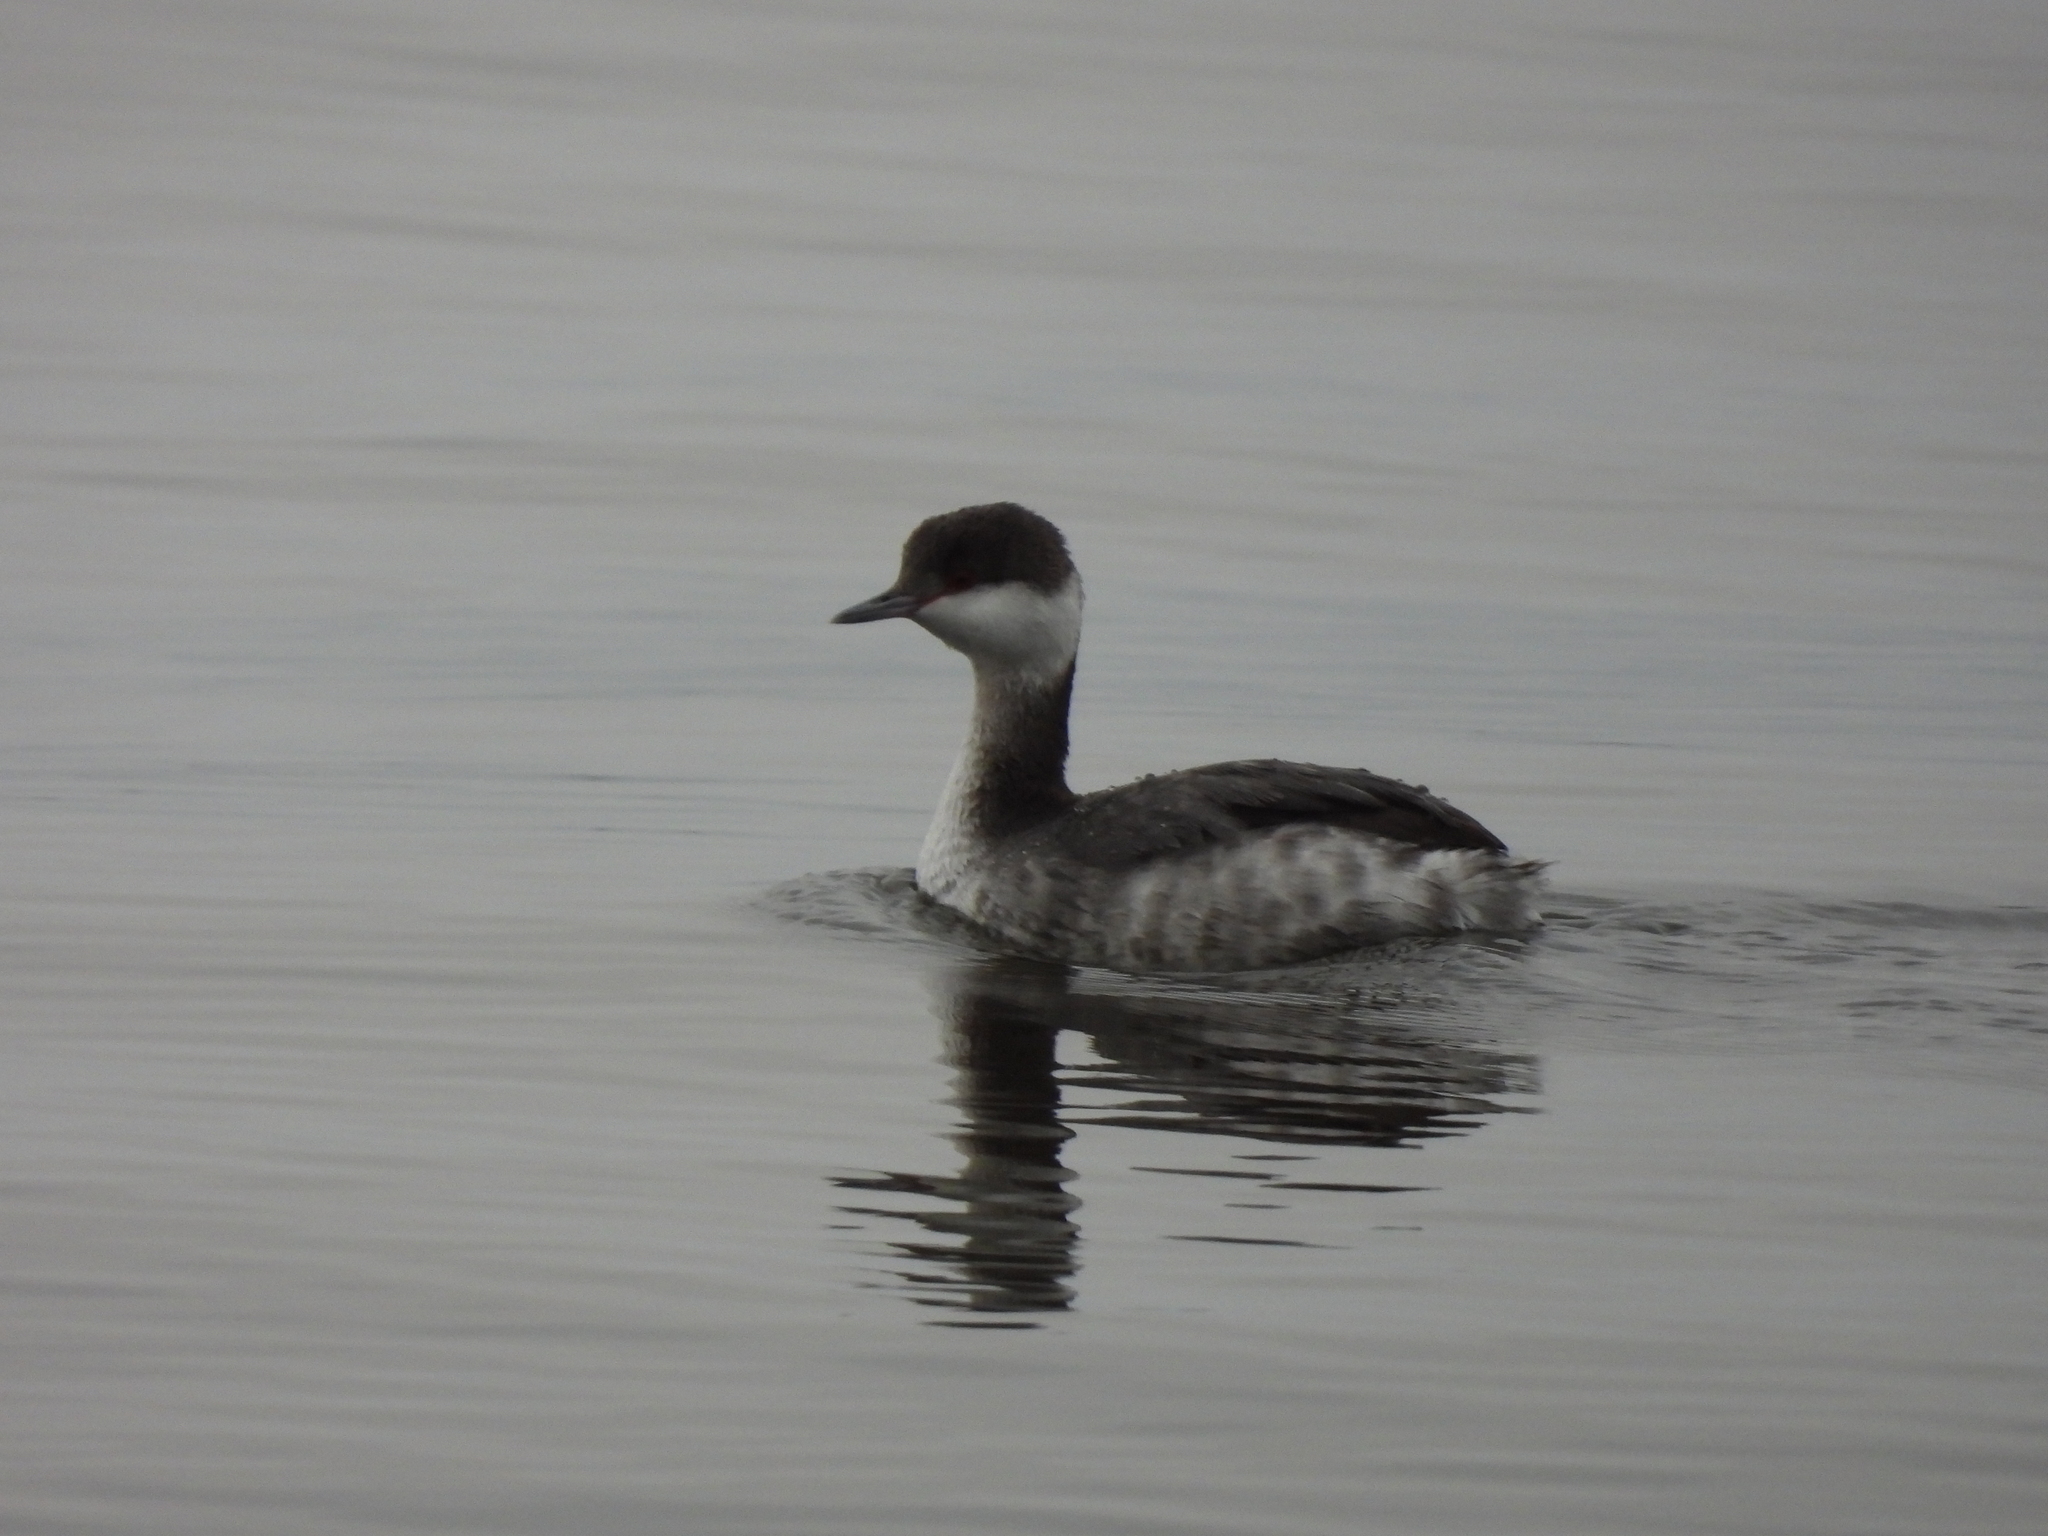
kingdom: Animalia
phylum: Chordata
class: Aves
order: Podicipediformes
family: Podicipedidae
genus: Podiceps
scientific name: Podiceps auritus
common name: Horned grebe
